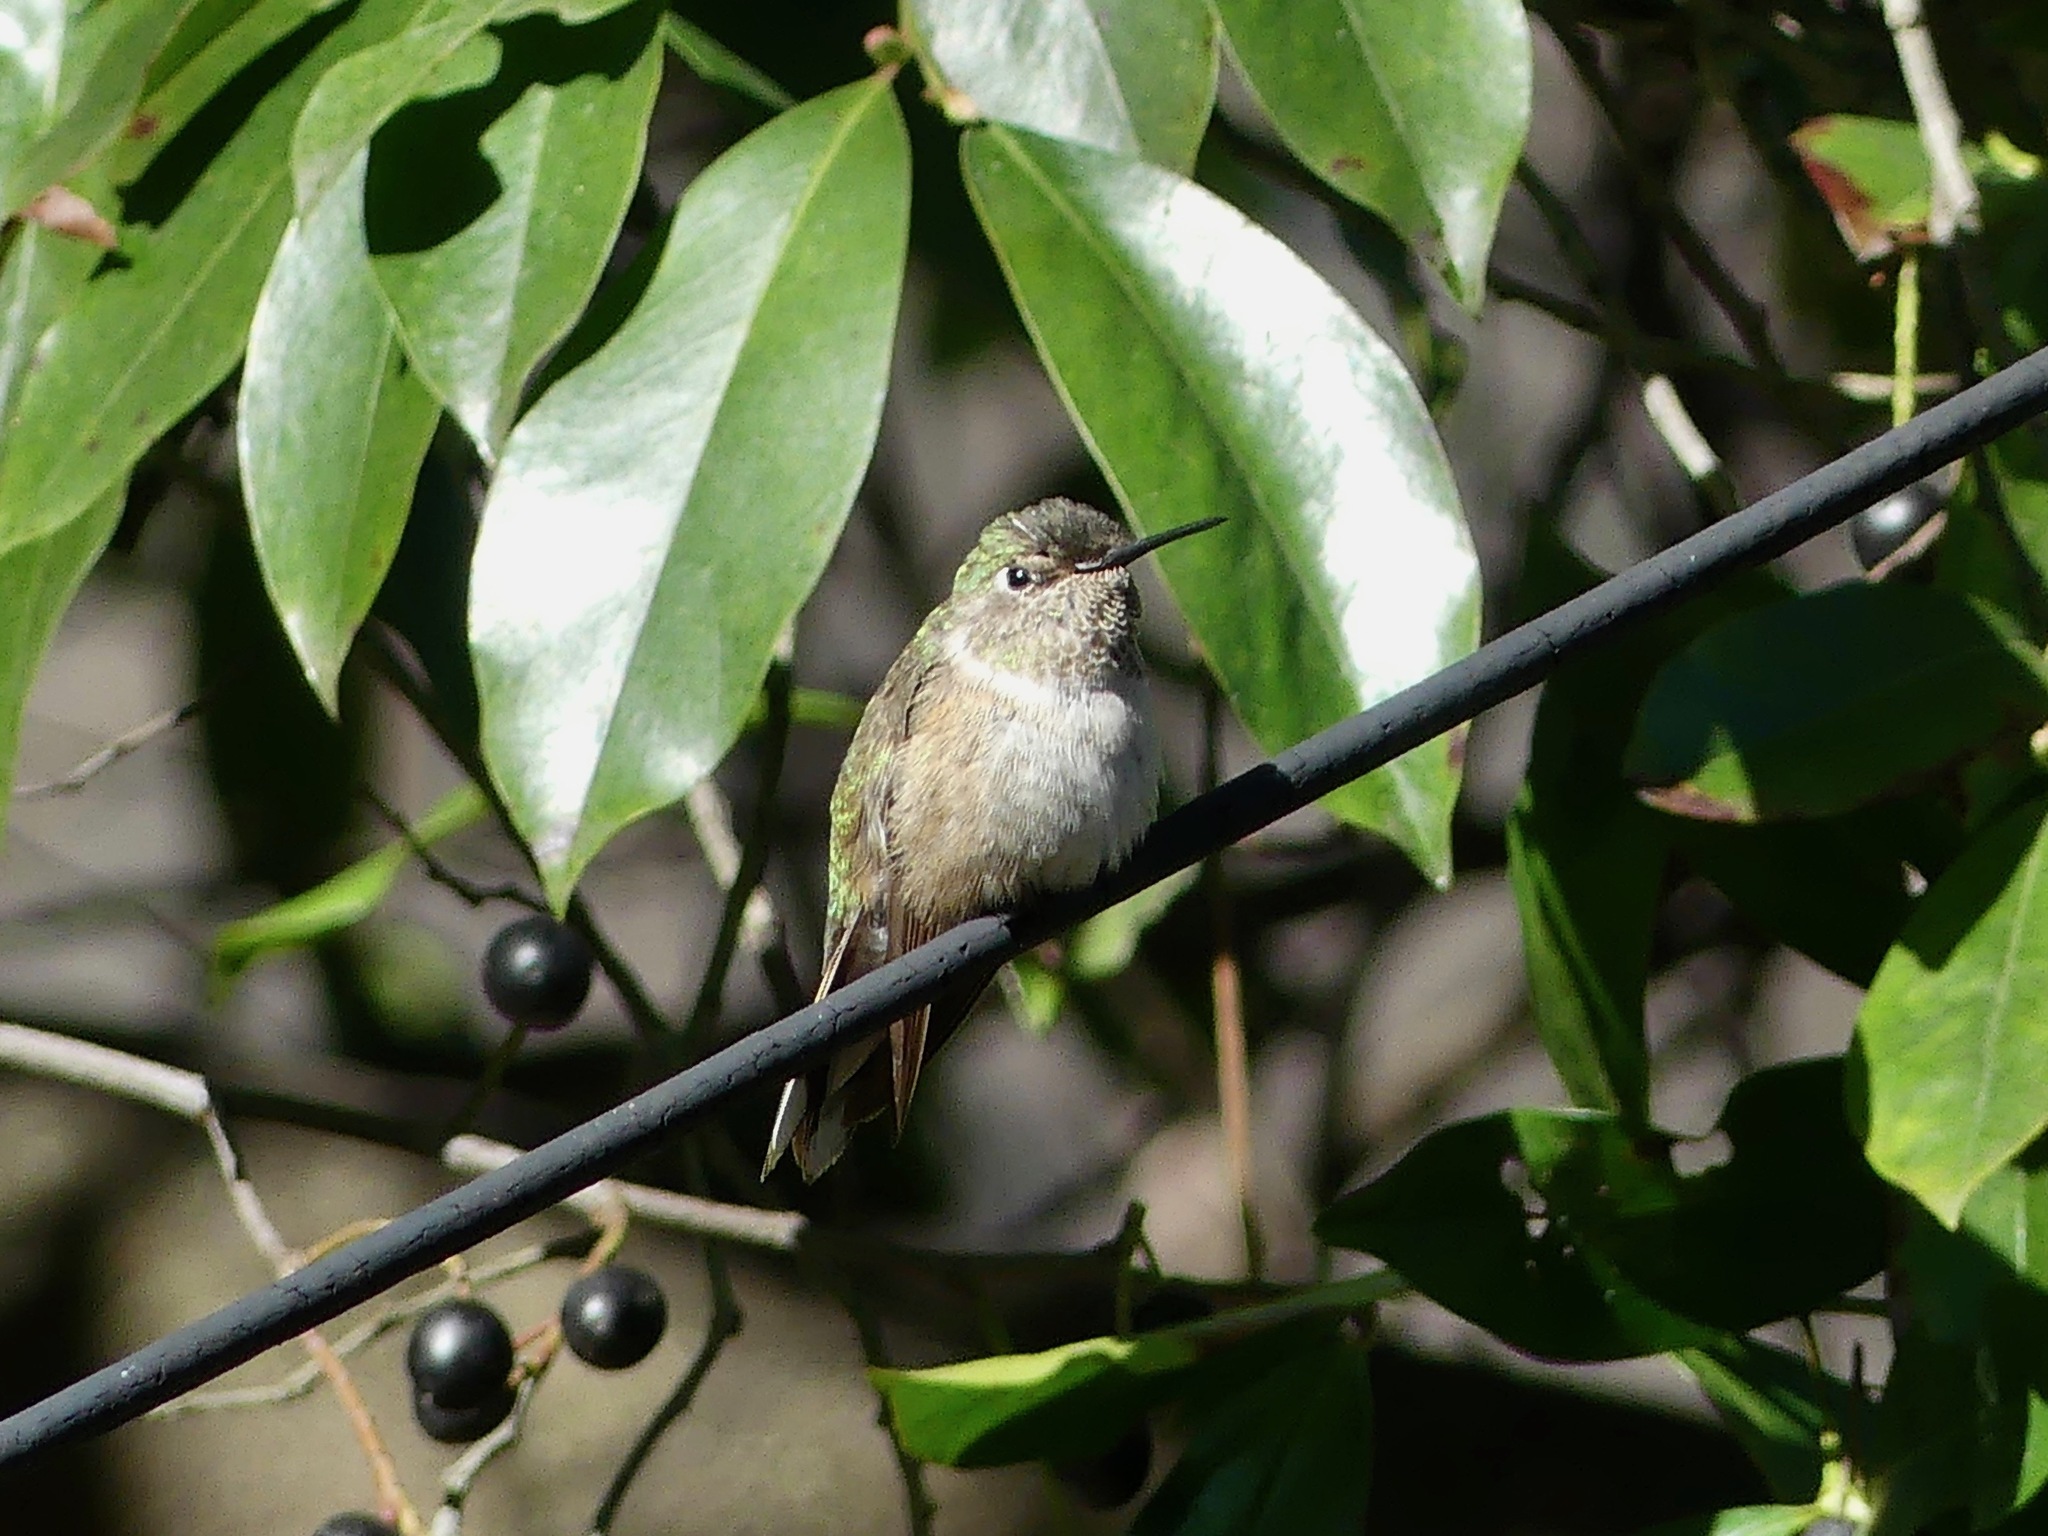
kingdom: Animalia
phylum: Chordata
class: Aves
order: Apodiformes
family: Trochilidae
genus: Selasphorus
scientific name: Selasphorus platycercus
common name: Broad-tailed hummingbird
